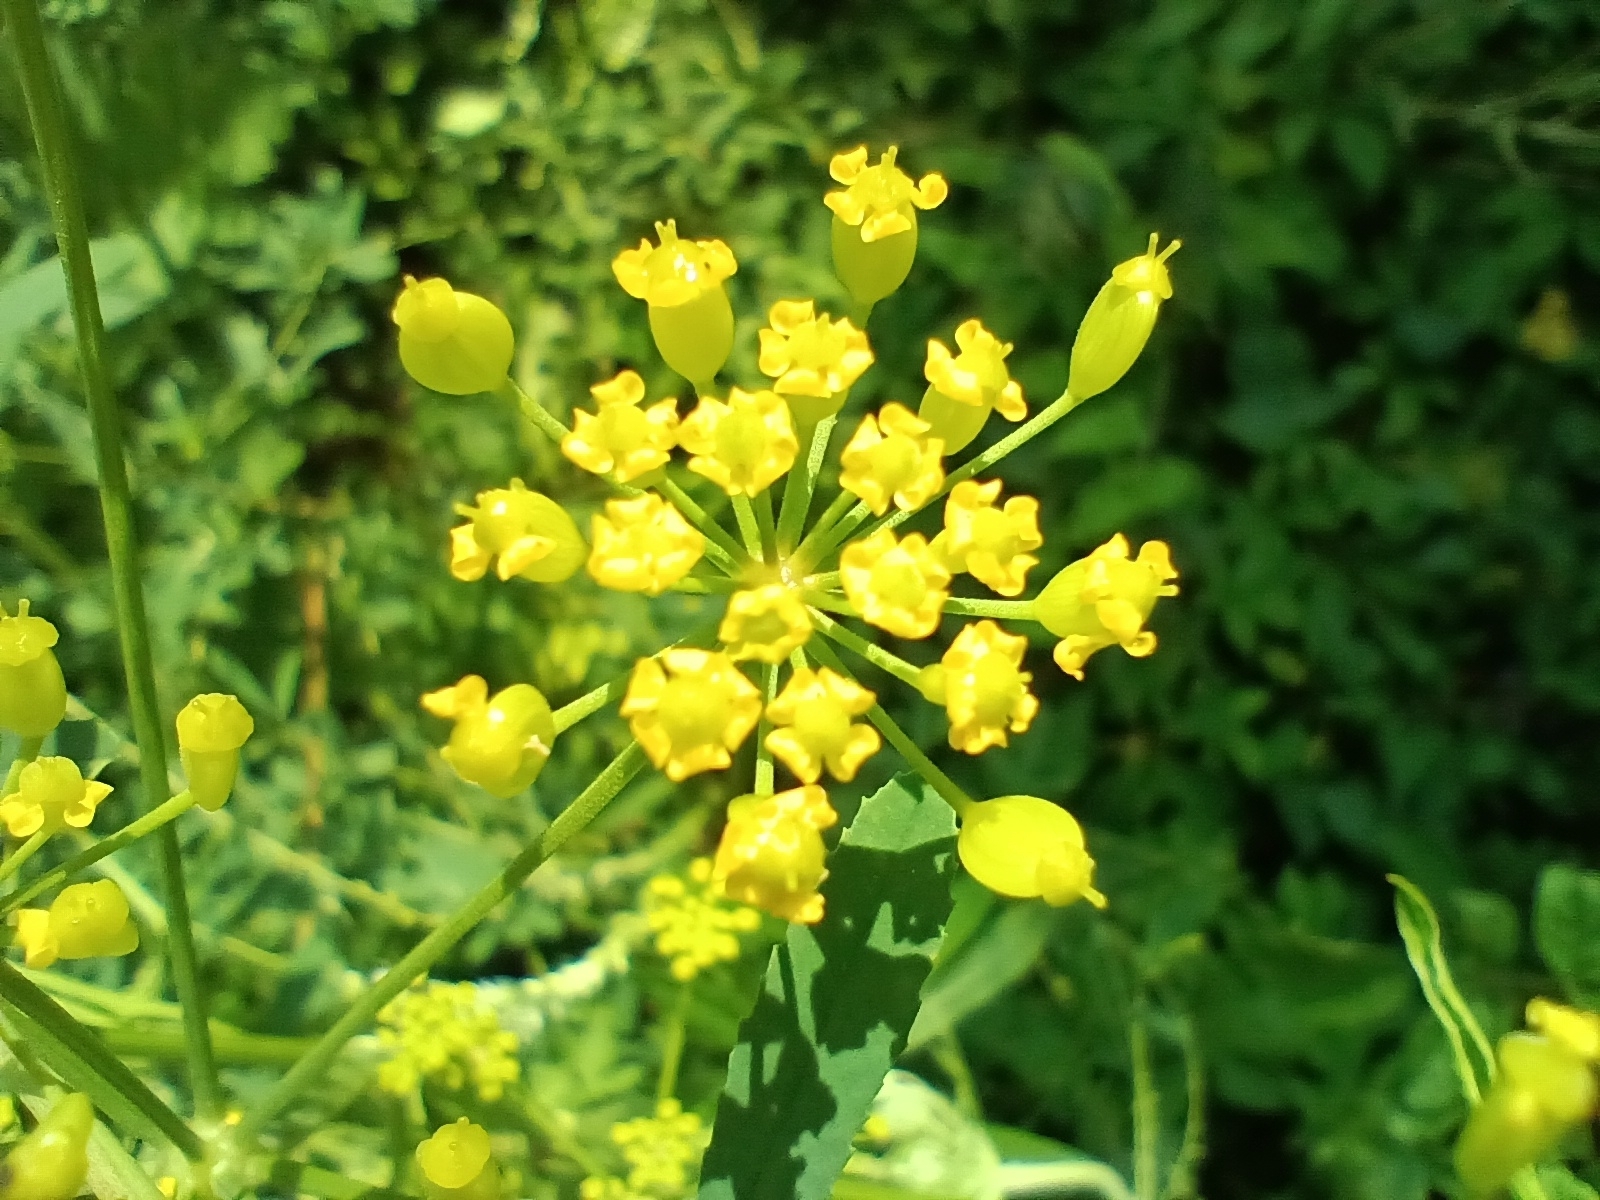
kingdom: Plantae
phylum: Tracheophyta
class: Magnoliopsida
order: Apiales
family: Apiaceae
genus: Pastinaca
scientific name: Pastinaca sativa
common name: Wild parsnip
